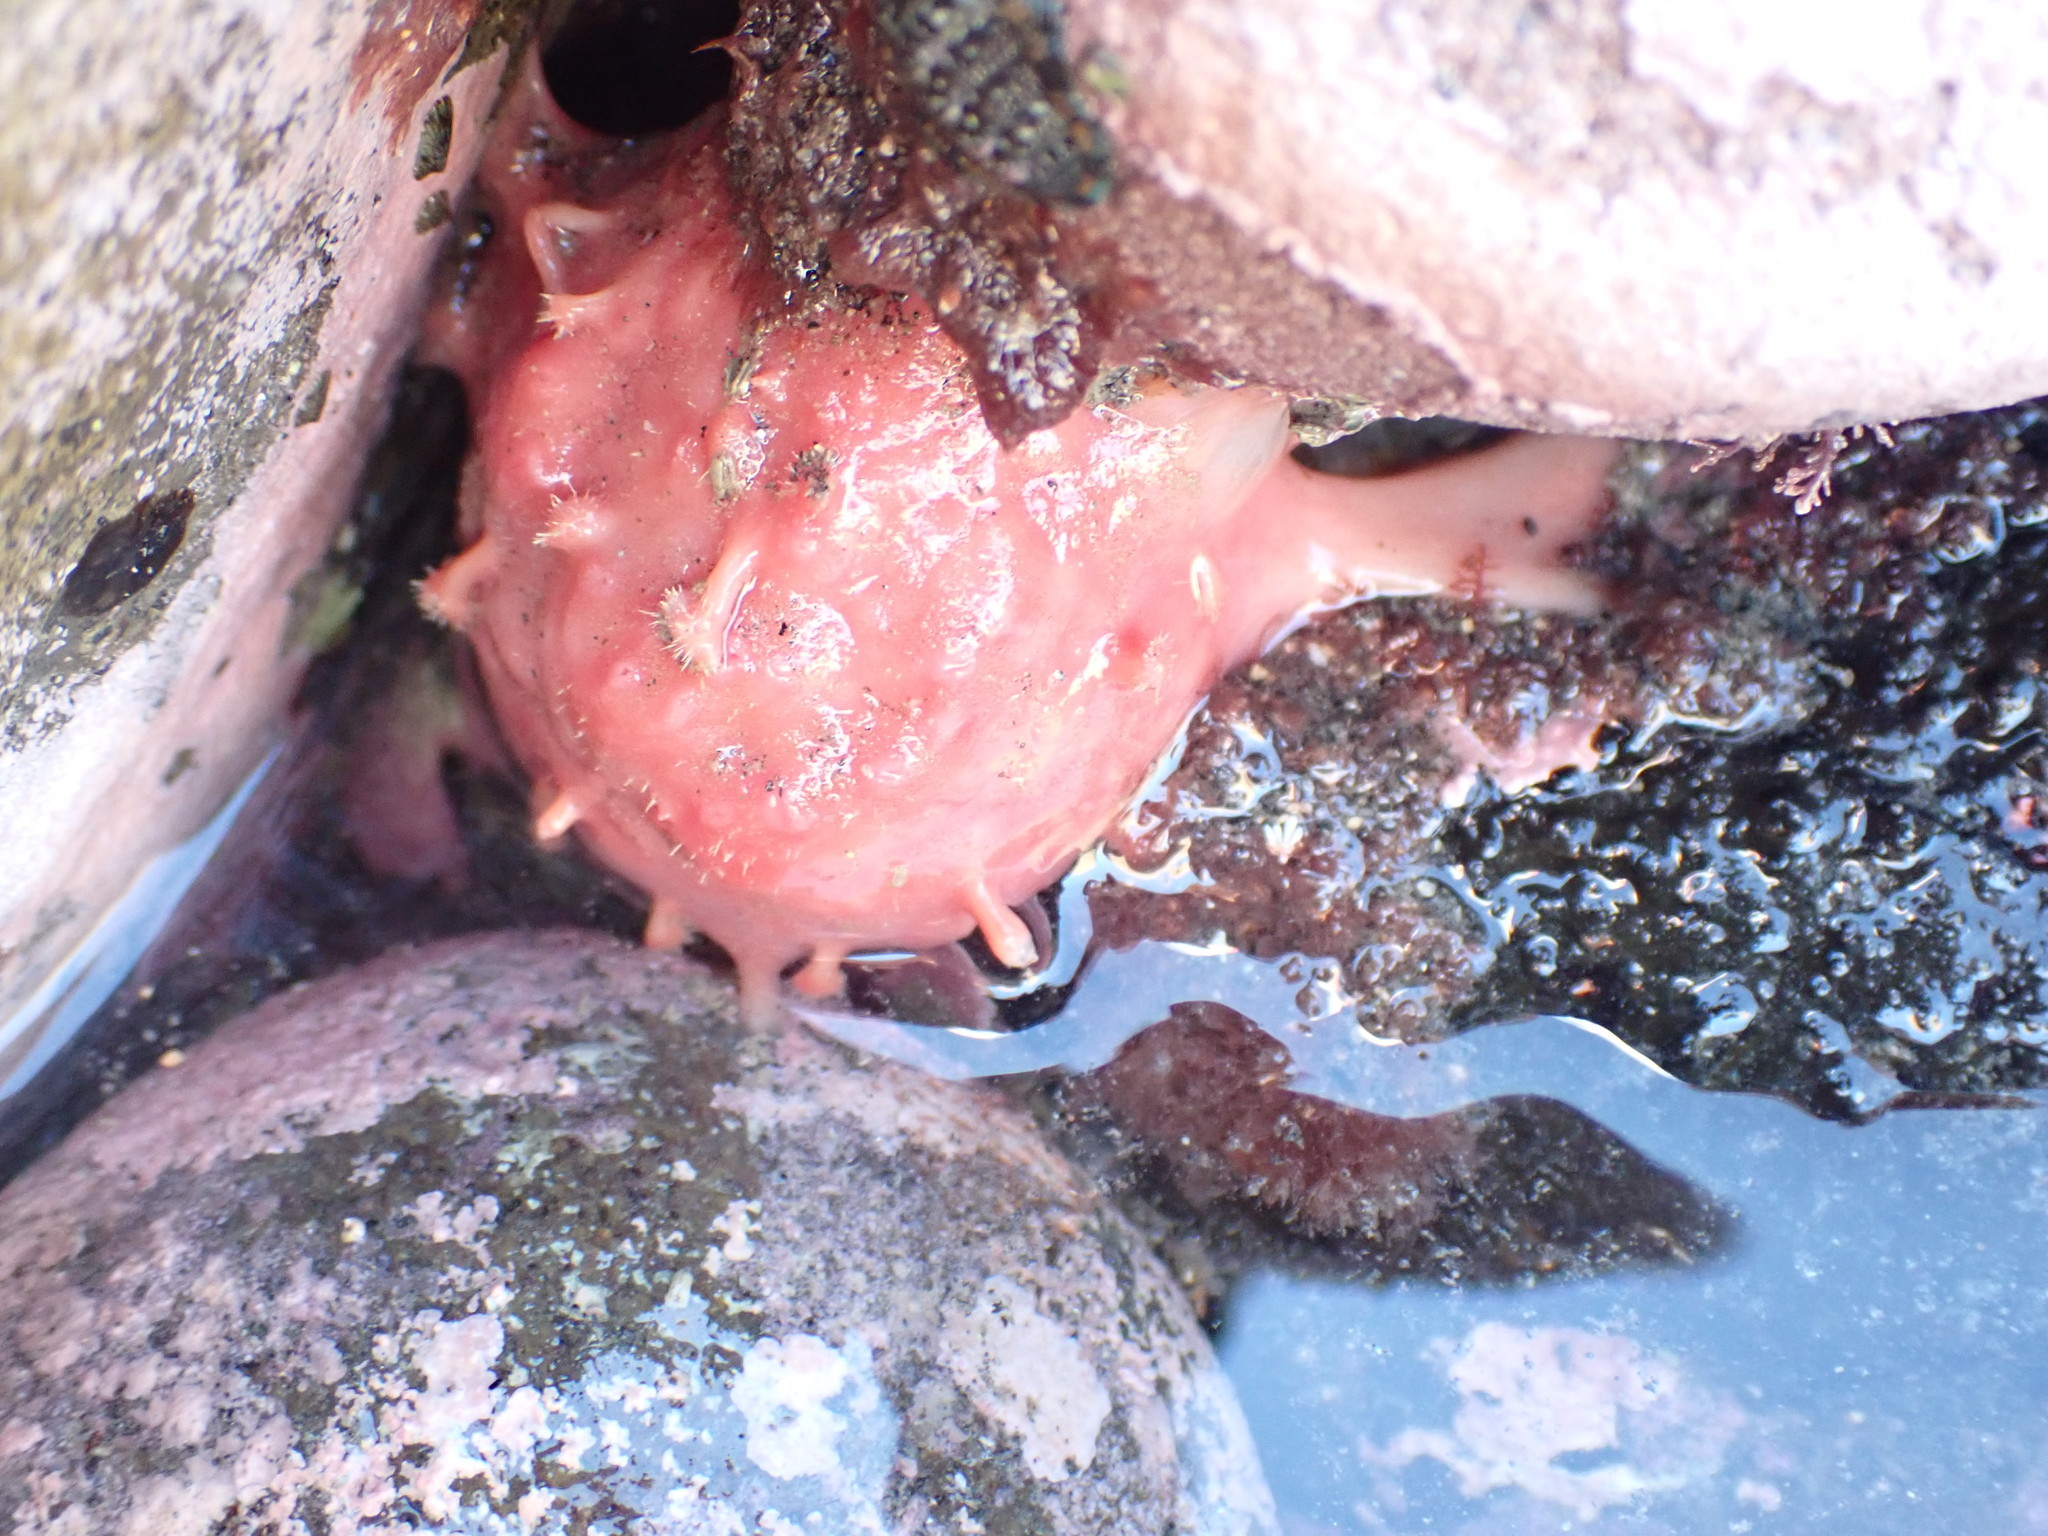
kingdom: Animalia
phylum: Porifera
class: Demospongiae
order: Tethyida
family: Tethyidae
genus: Tethya
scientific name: Tethya bergquistae
